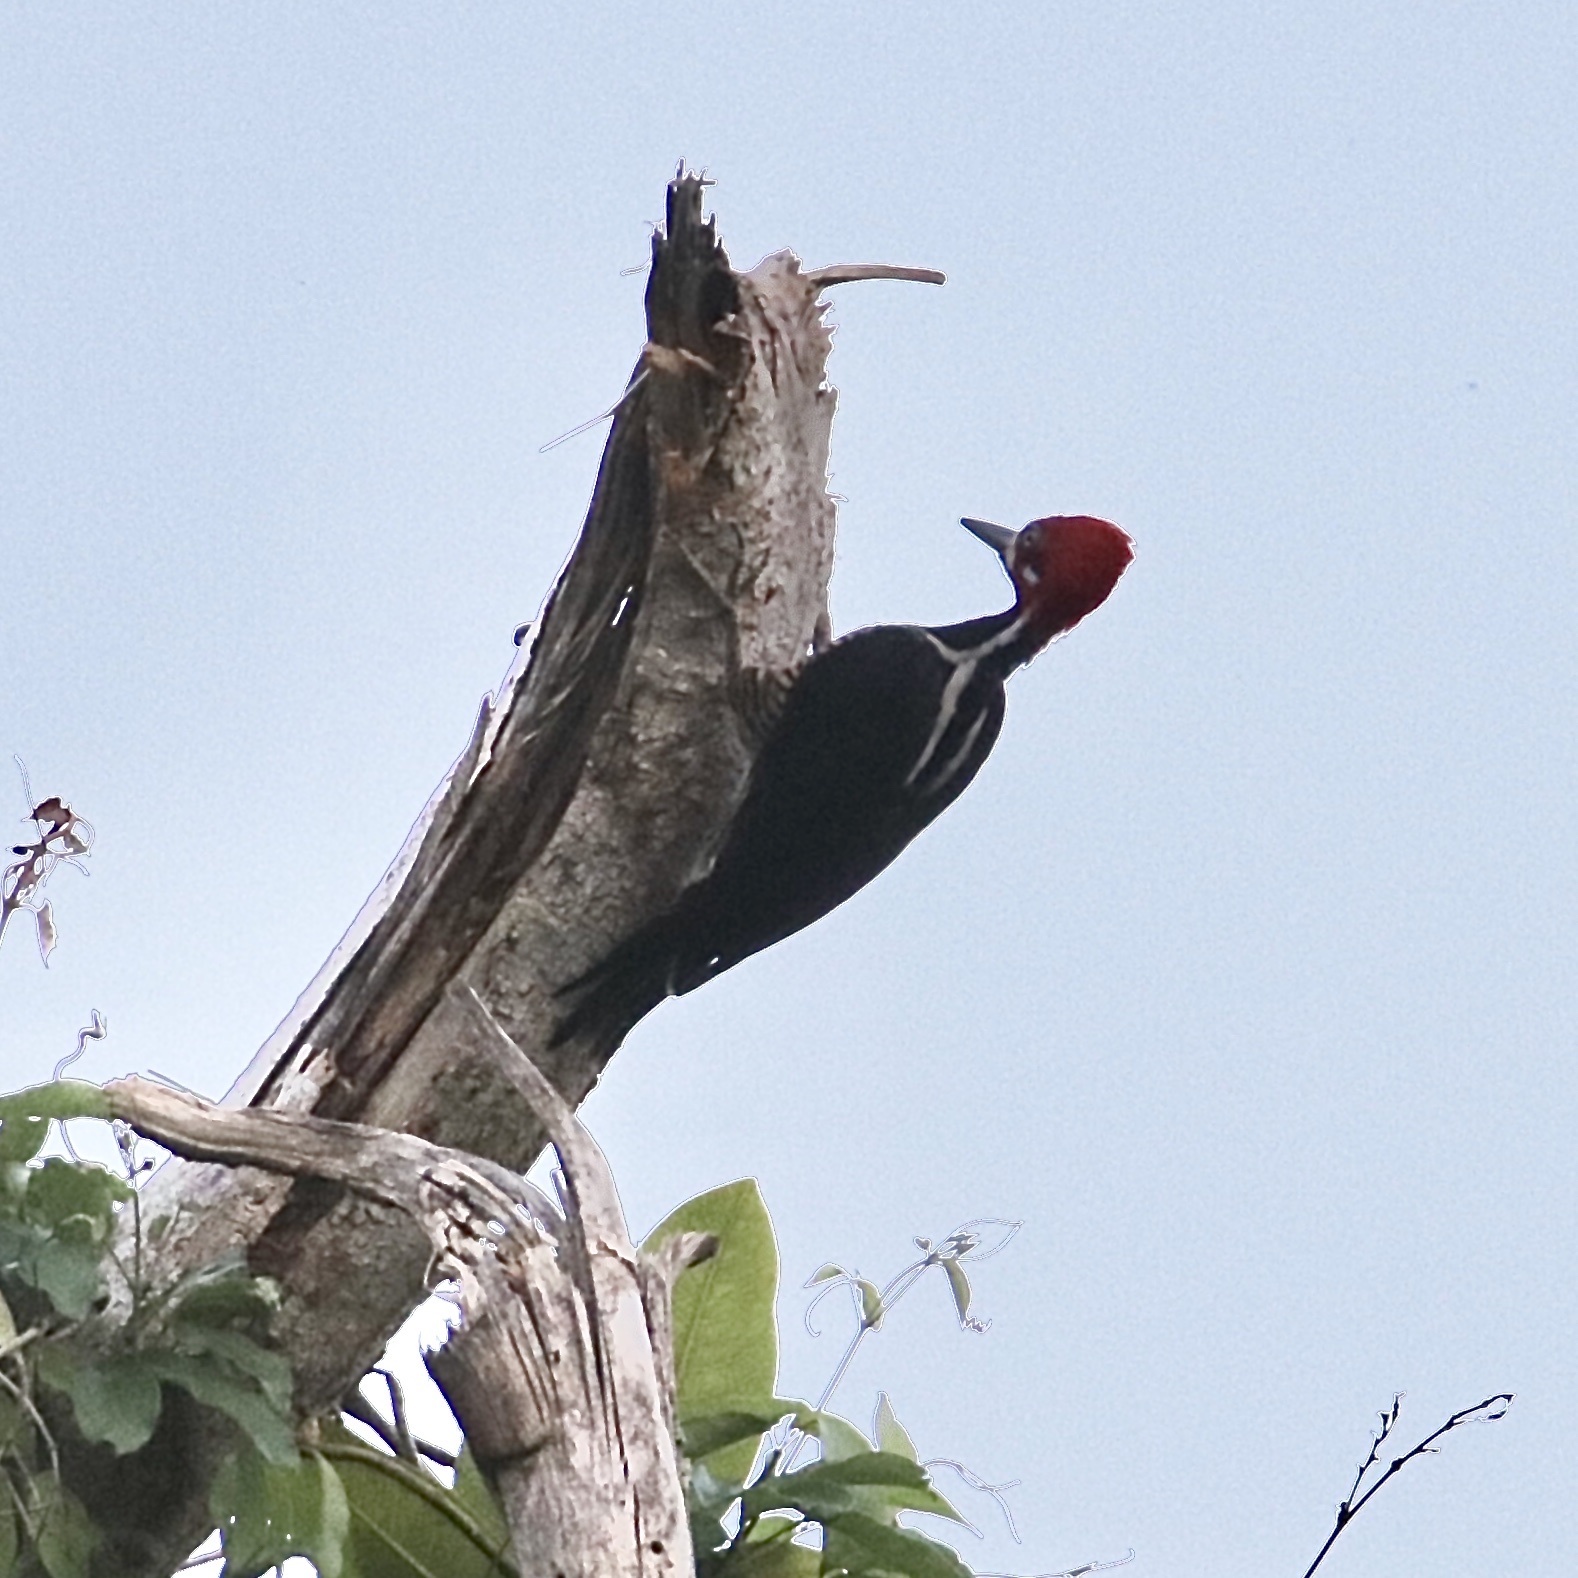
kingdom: Animalia
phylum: Chordata
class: Aves
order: Piciformes
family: Picidae
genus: Campephilus
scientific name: Campephilus melanoleucos
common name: Crimson-crested woodpecker
